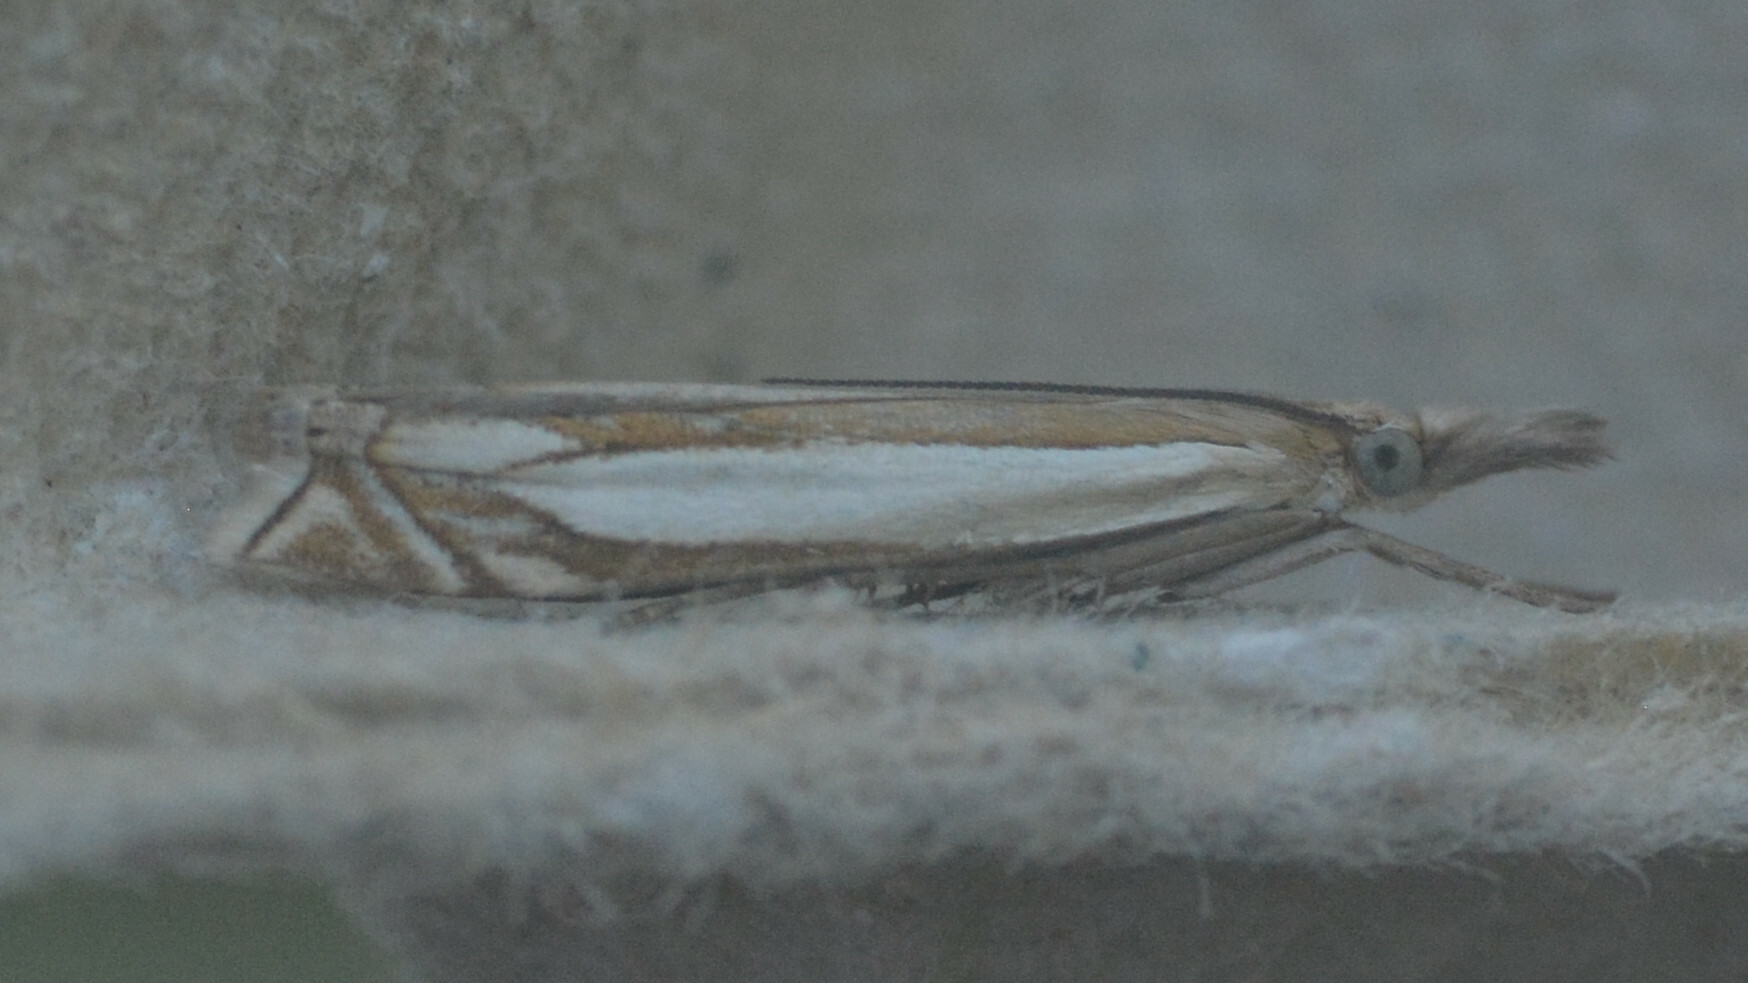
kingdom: Animalia
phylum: Arthropoda
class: Insecta
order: Lepidoptera
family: Crambidae
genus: Crambus
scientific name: Crambus pascuella
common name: Inlaid grass-veneer
